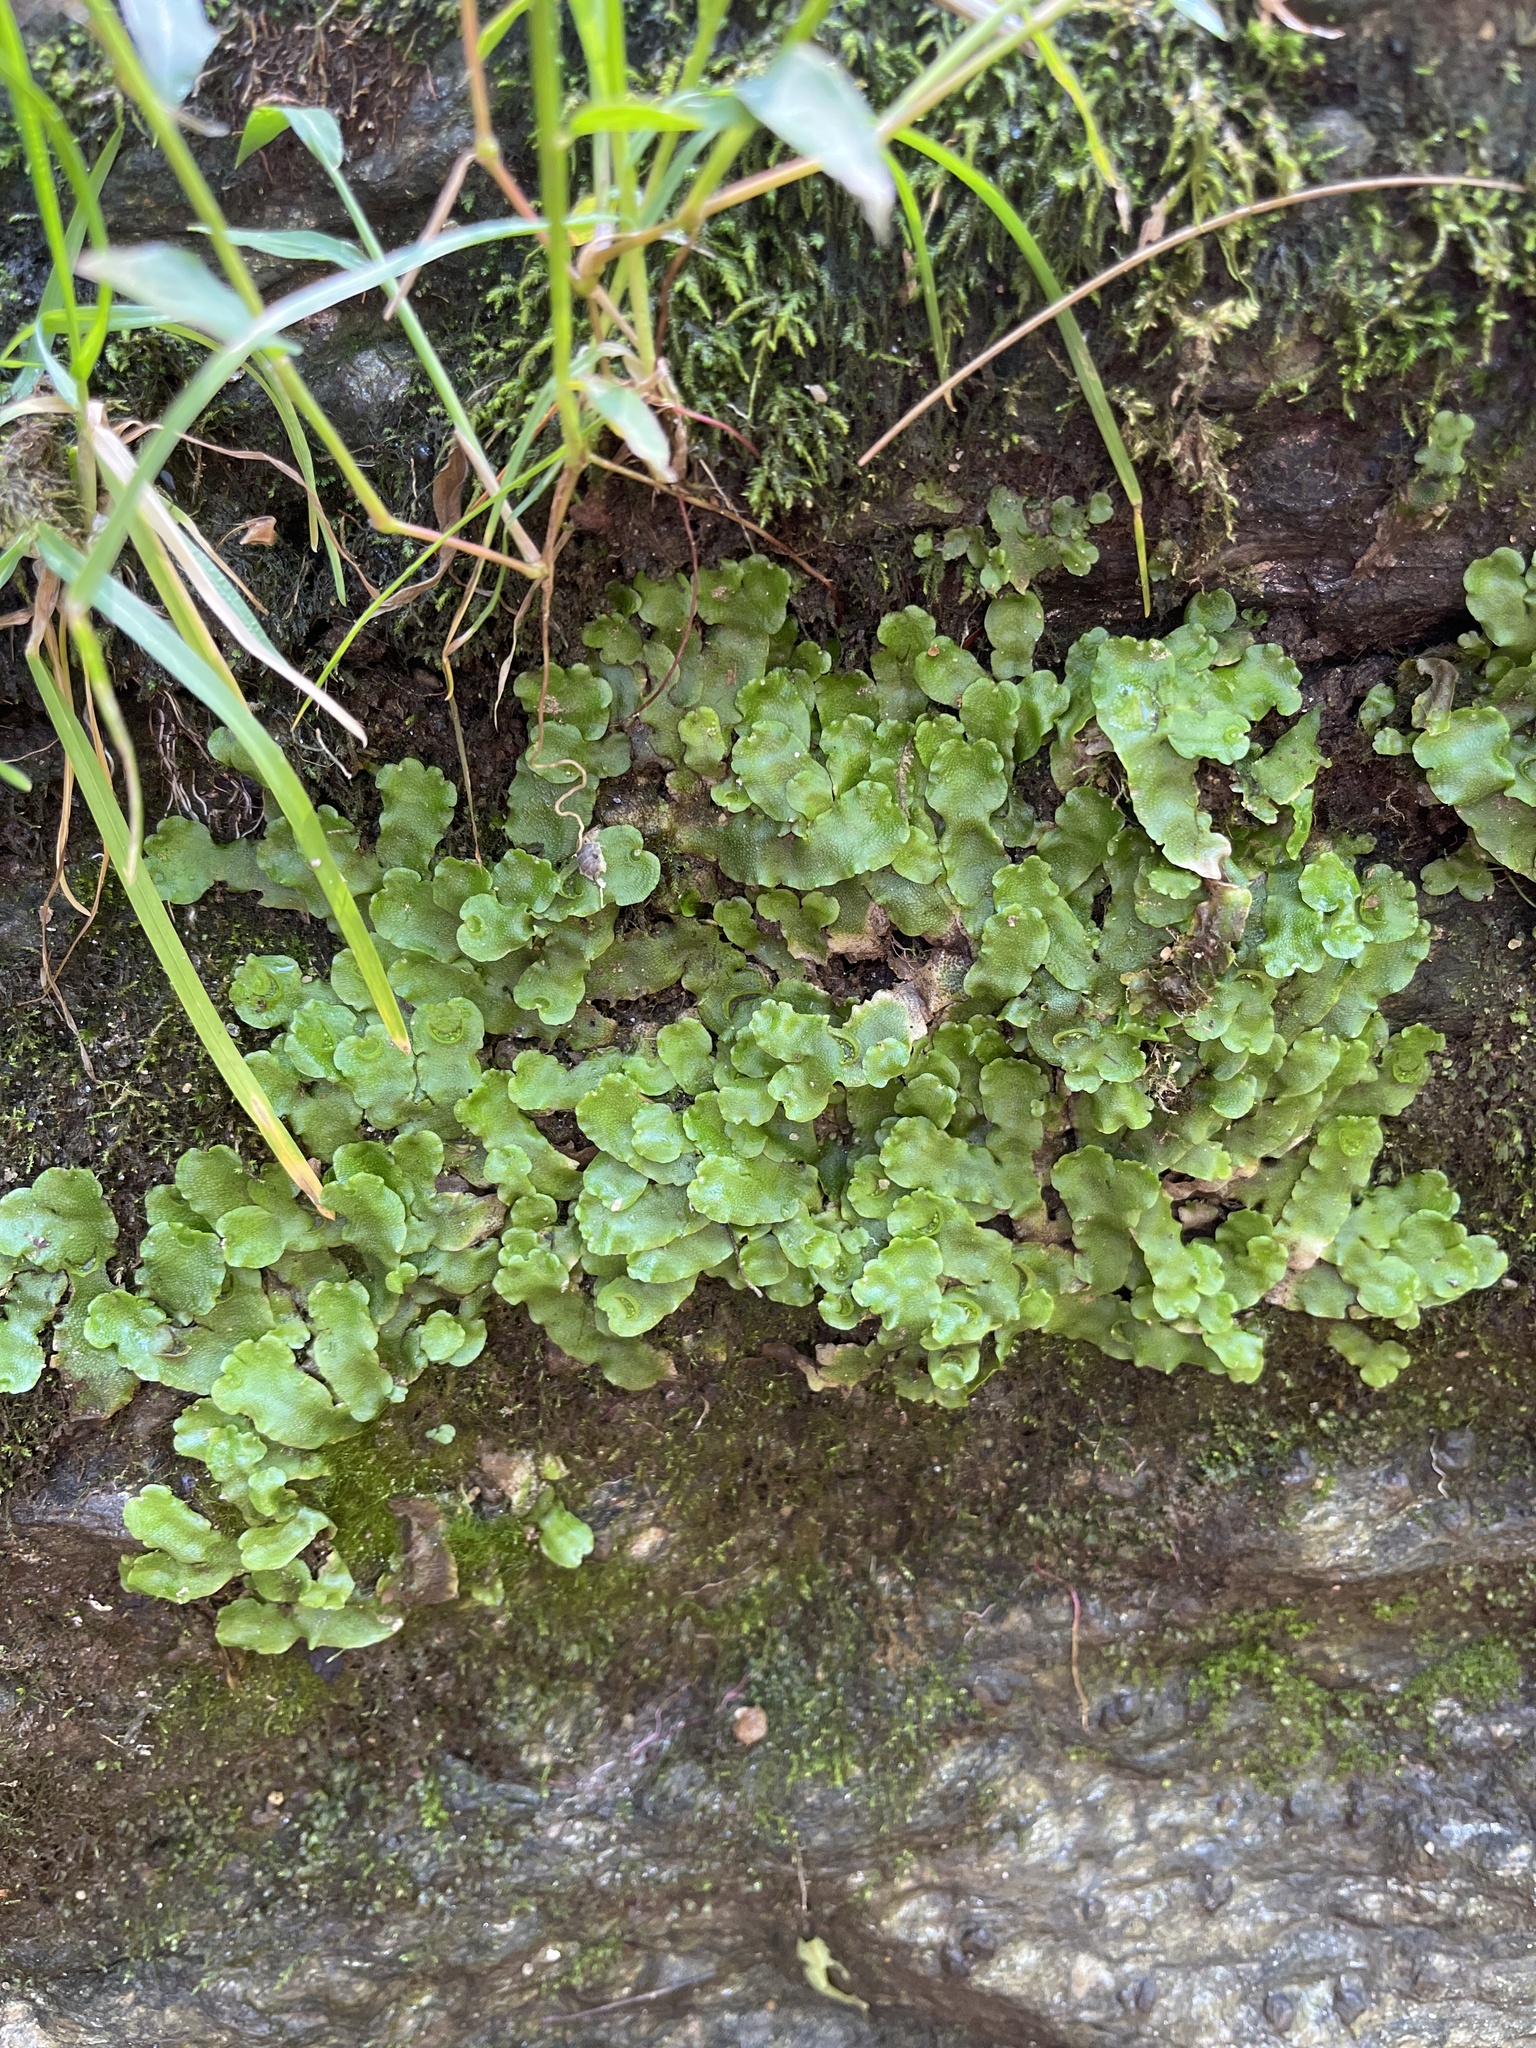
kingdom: Plantae
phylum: Marchantiophyta
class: Marchantiopsida
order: Lunulariales
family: Lunulariaceae
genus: Lunularia
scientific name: Lunularia cruciata
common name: Crescent-cup liverwort
